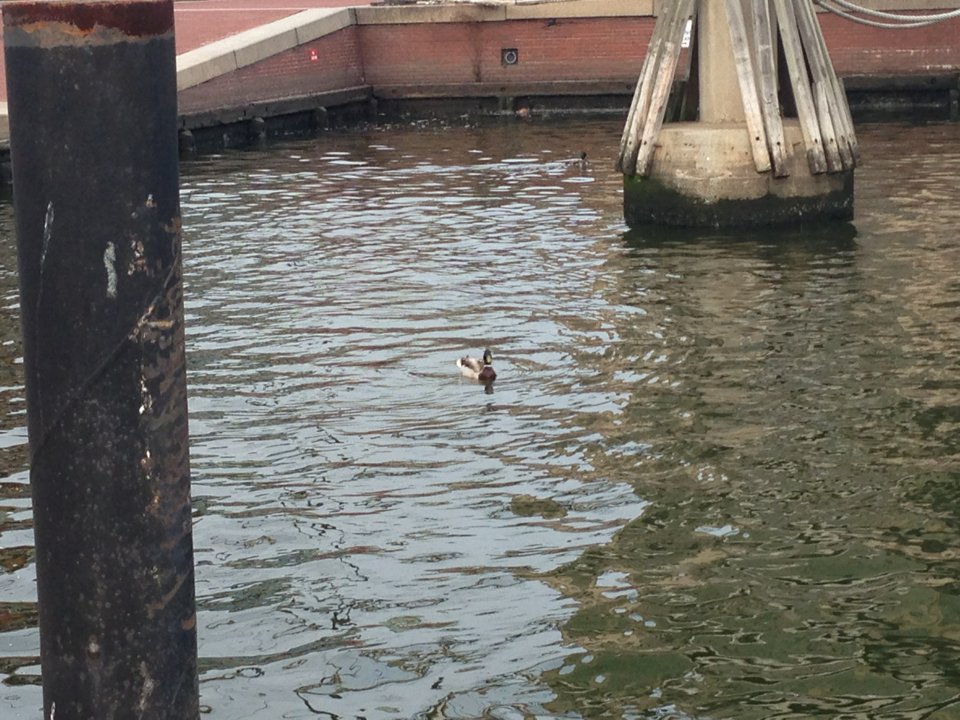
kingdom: Animalia
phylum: Chordata
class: Aves
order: Anseriformes
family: Anatidae
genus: Anas
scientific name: Anas platyrhynchos
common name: Mallard
